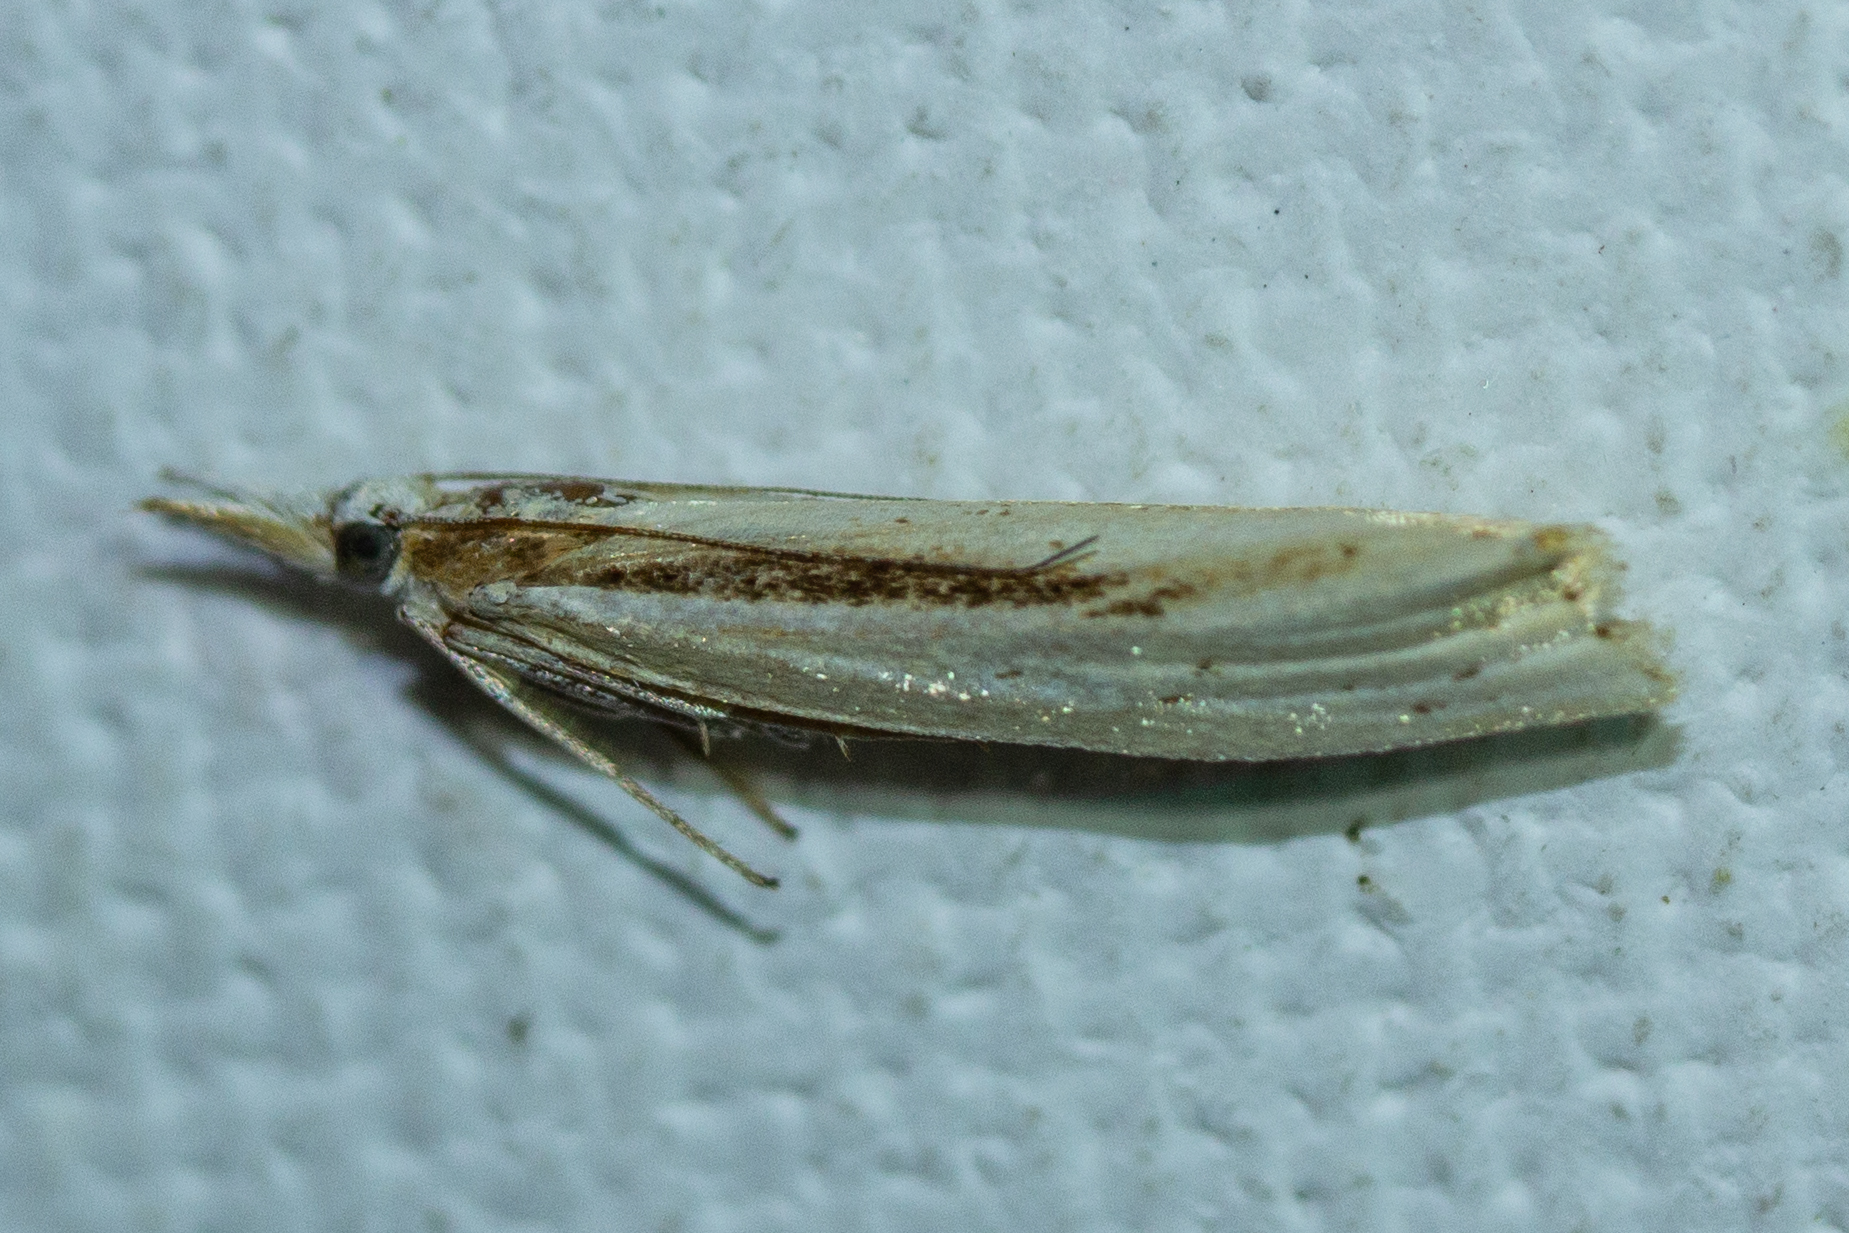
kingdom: Animalia
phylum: Arthropoda
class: Insecta
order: Lepidoptera
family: Crambidae
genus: Orocrambus
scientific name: Orocrambus ramosellus
